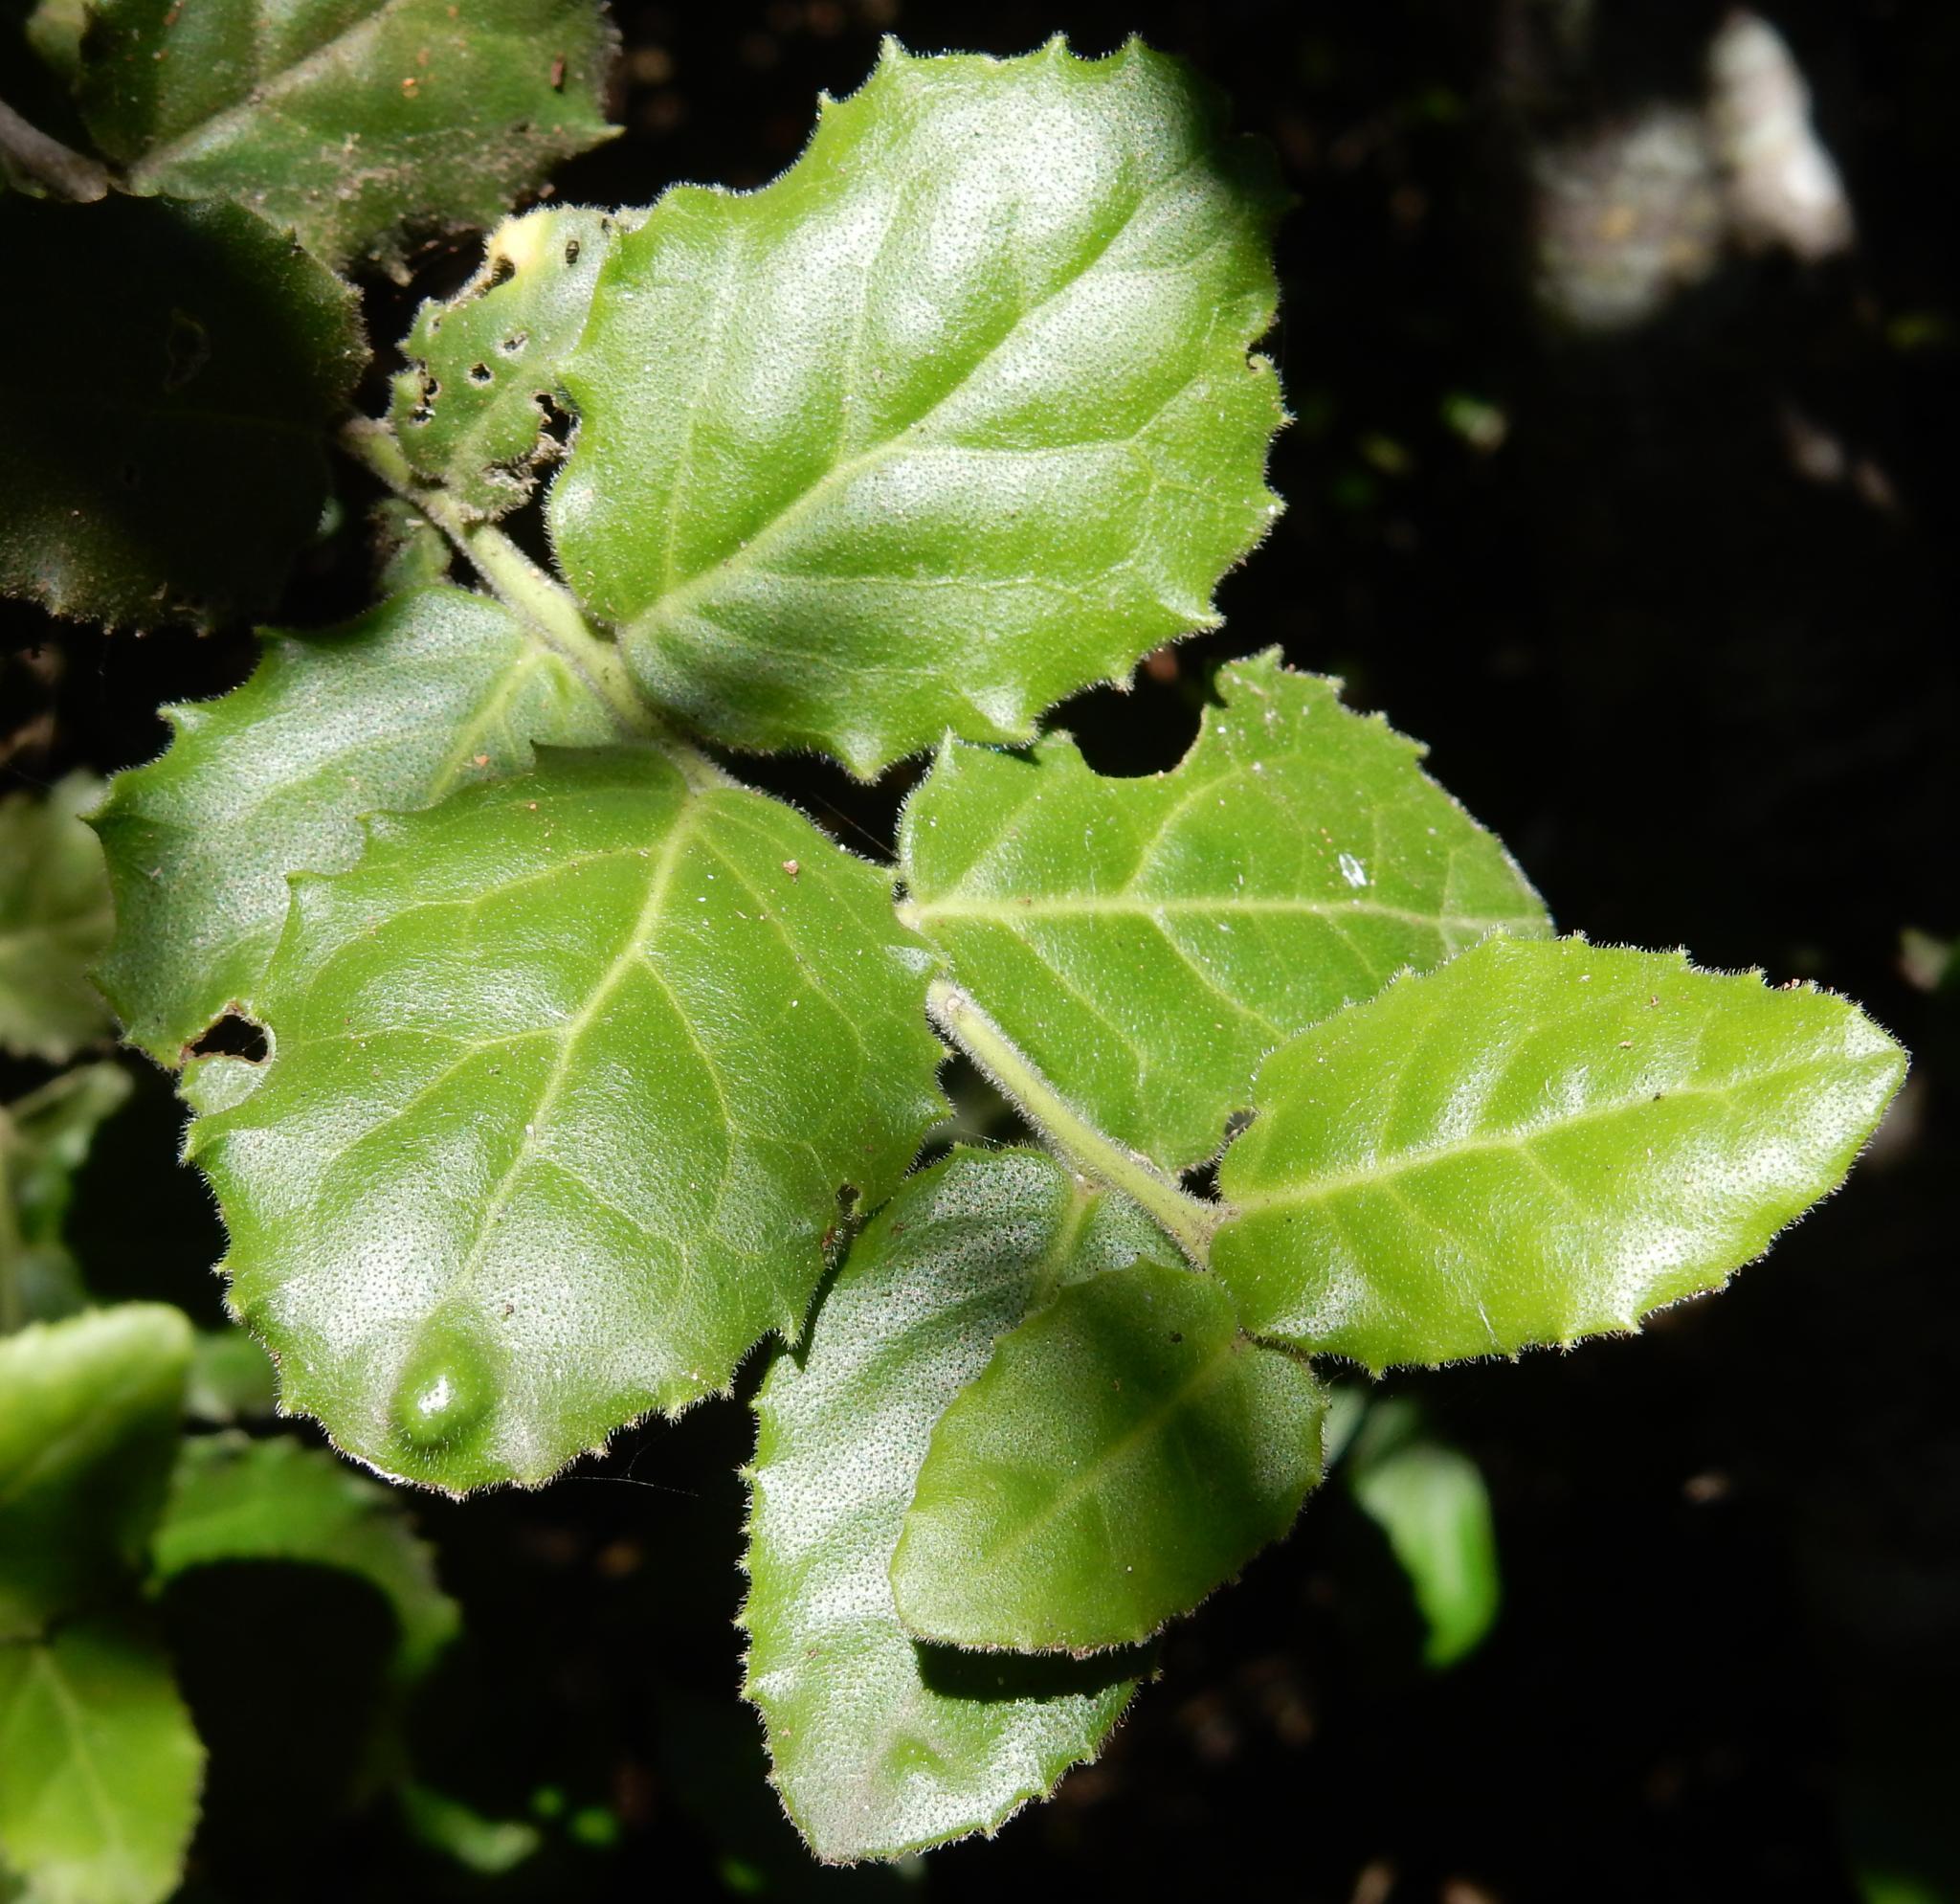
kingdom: Plantae
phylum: Tracheophyta
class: Magnoliopsida
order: Celastrales
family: Celastraceae
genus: Mystroxylon
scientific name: Mystroxylon aethiopicum
